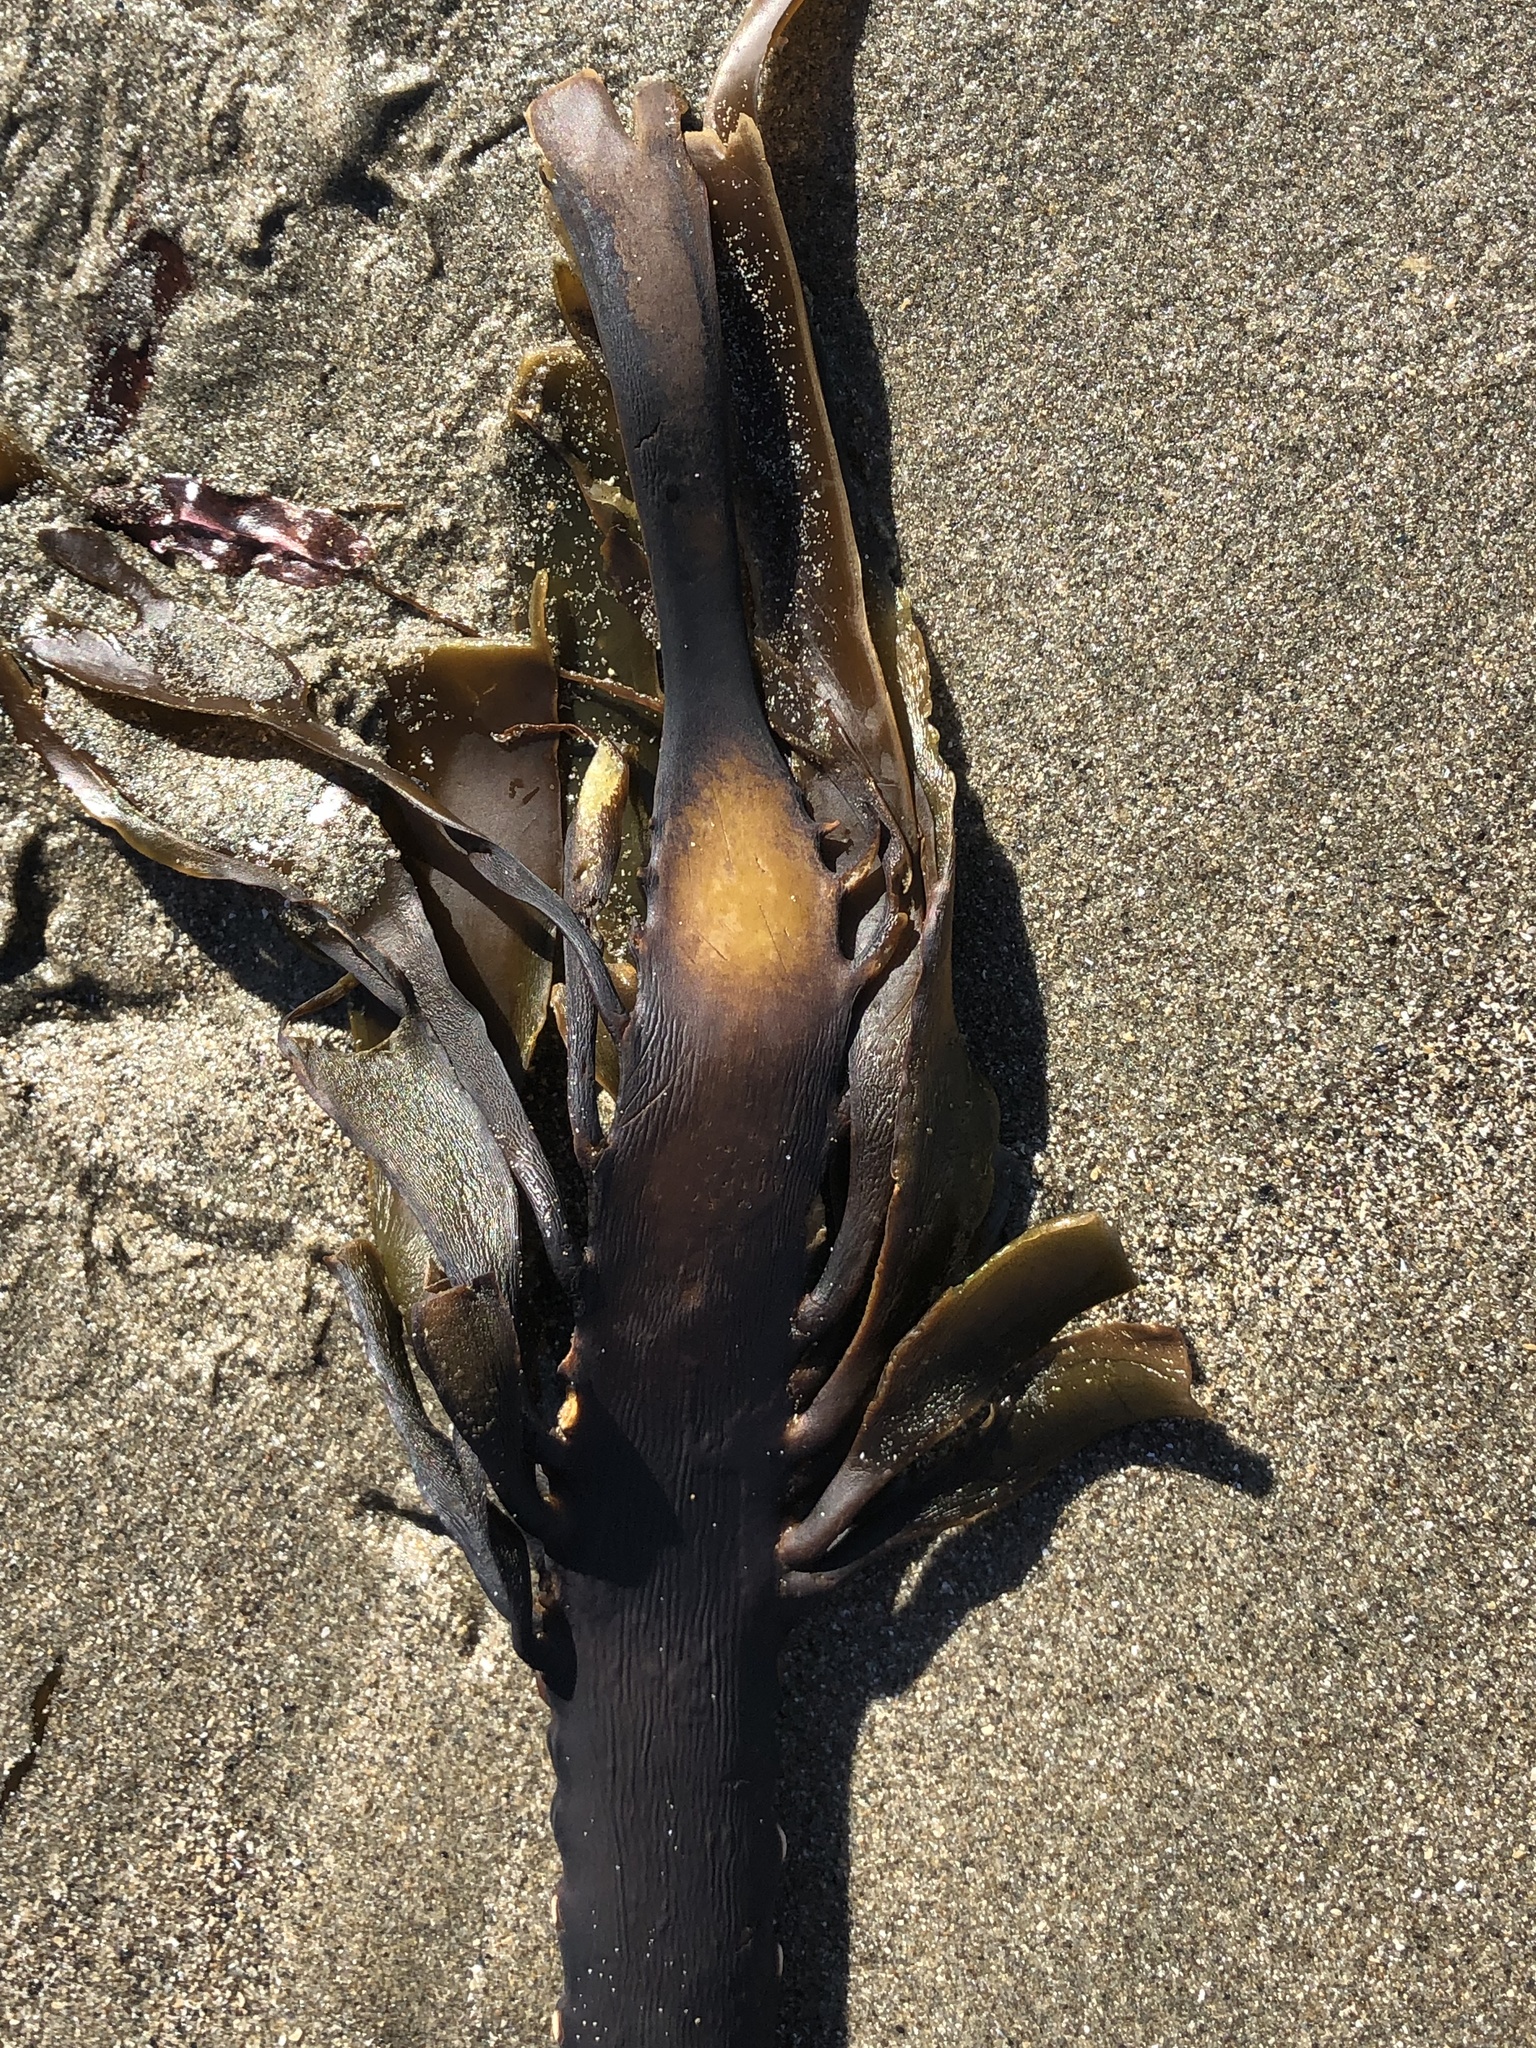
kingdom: Chromista
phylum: Ochrophyta
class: Phaeophyceae
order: Laminariales
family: Alariaceae
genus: Pterygophora
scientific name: Pterygophora californica
